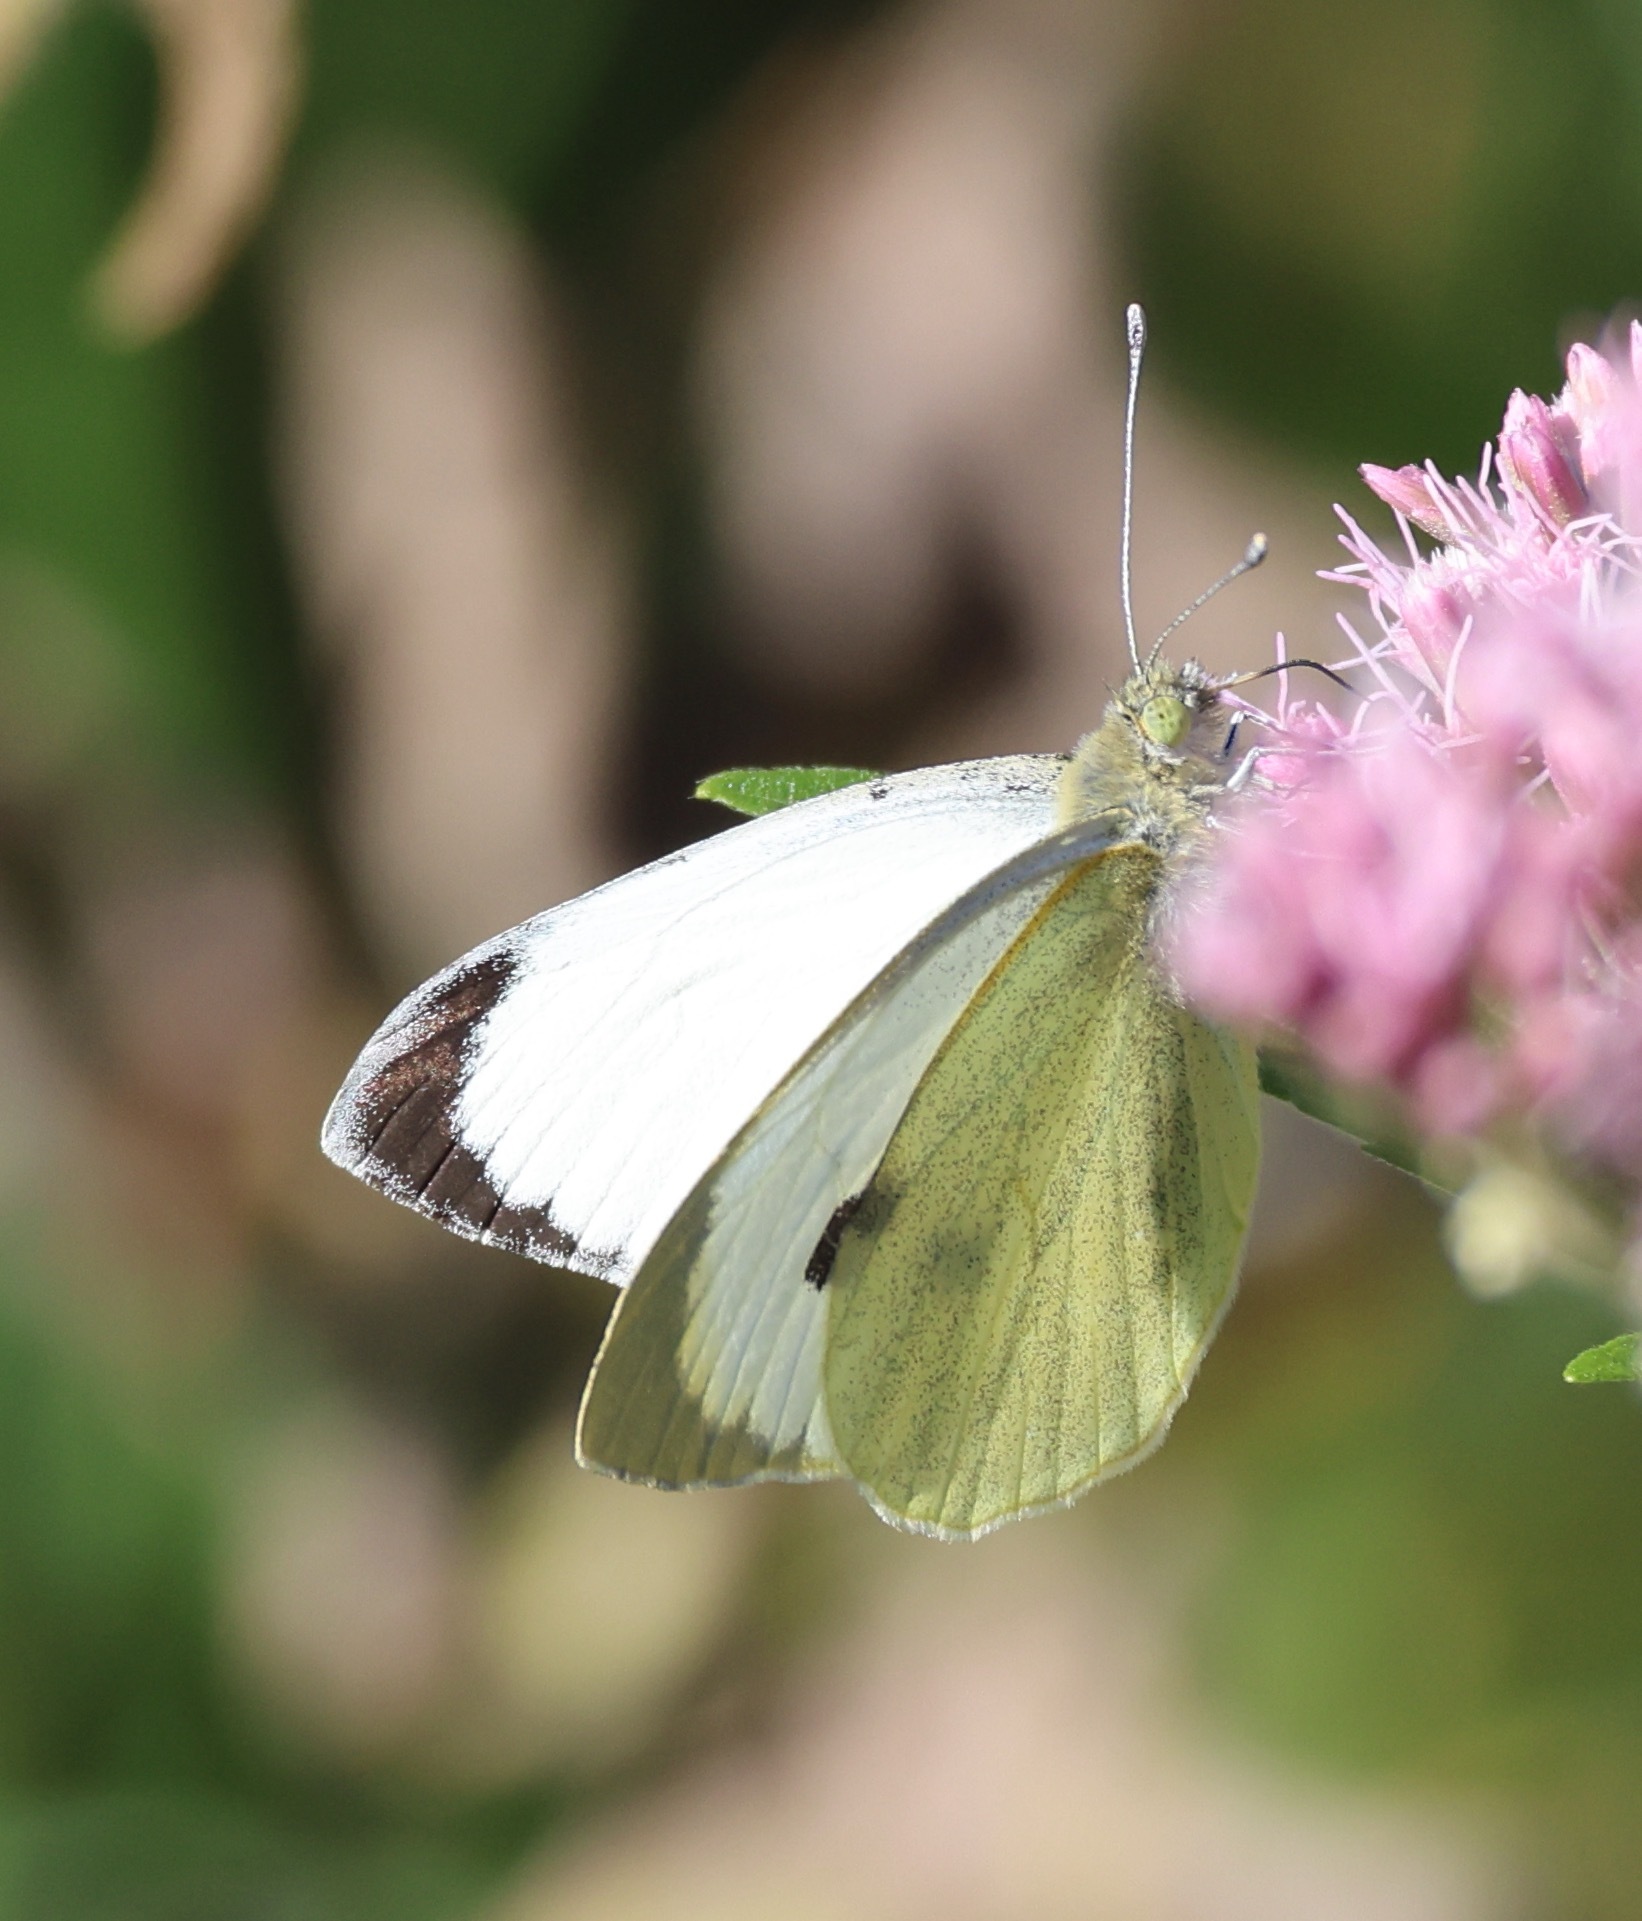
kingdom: Animalia
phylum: Arthropoda
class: Insecta
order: Lepidoptera
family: Pieridae
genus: Pieris
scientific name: Pieris brassicae
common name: Large white
